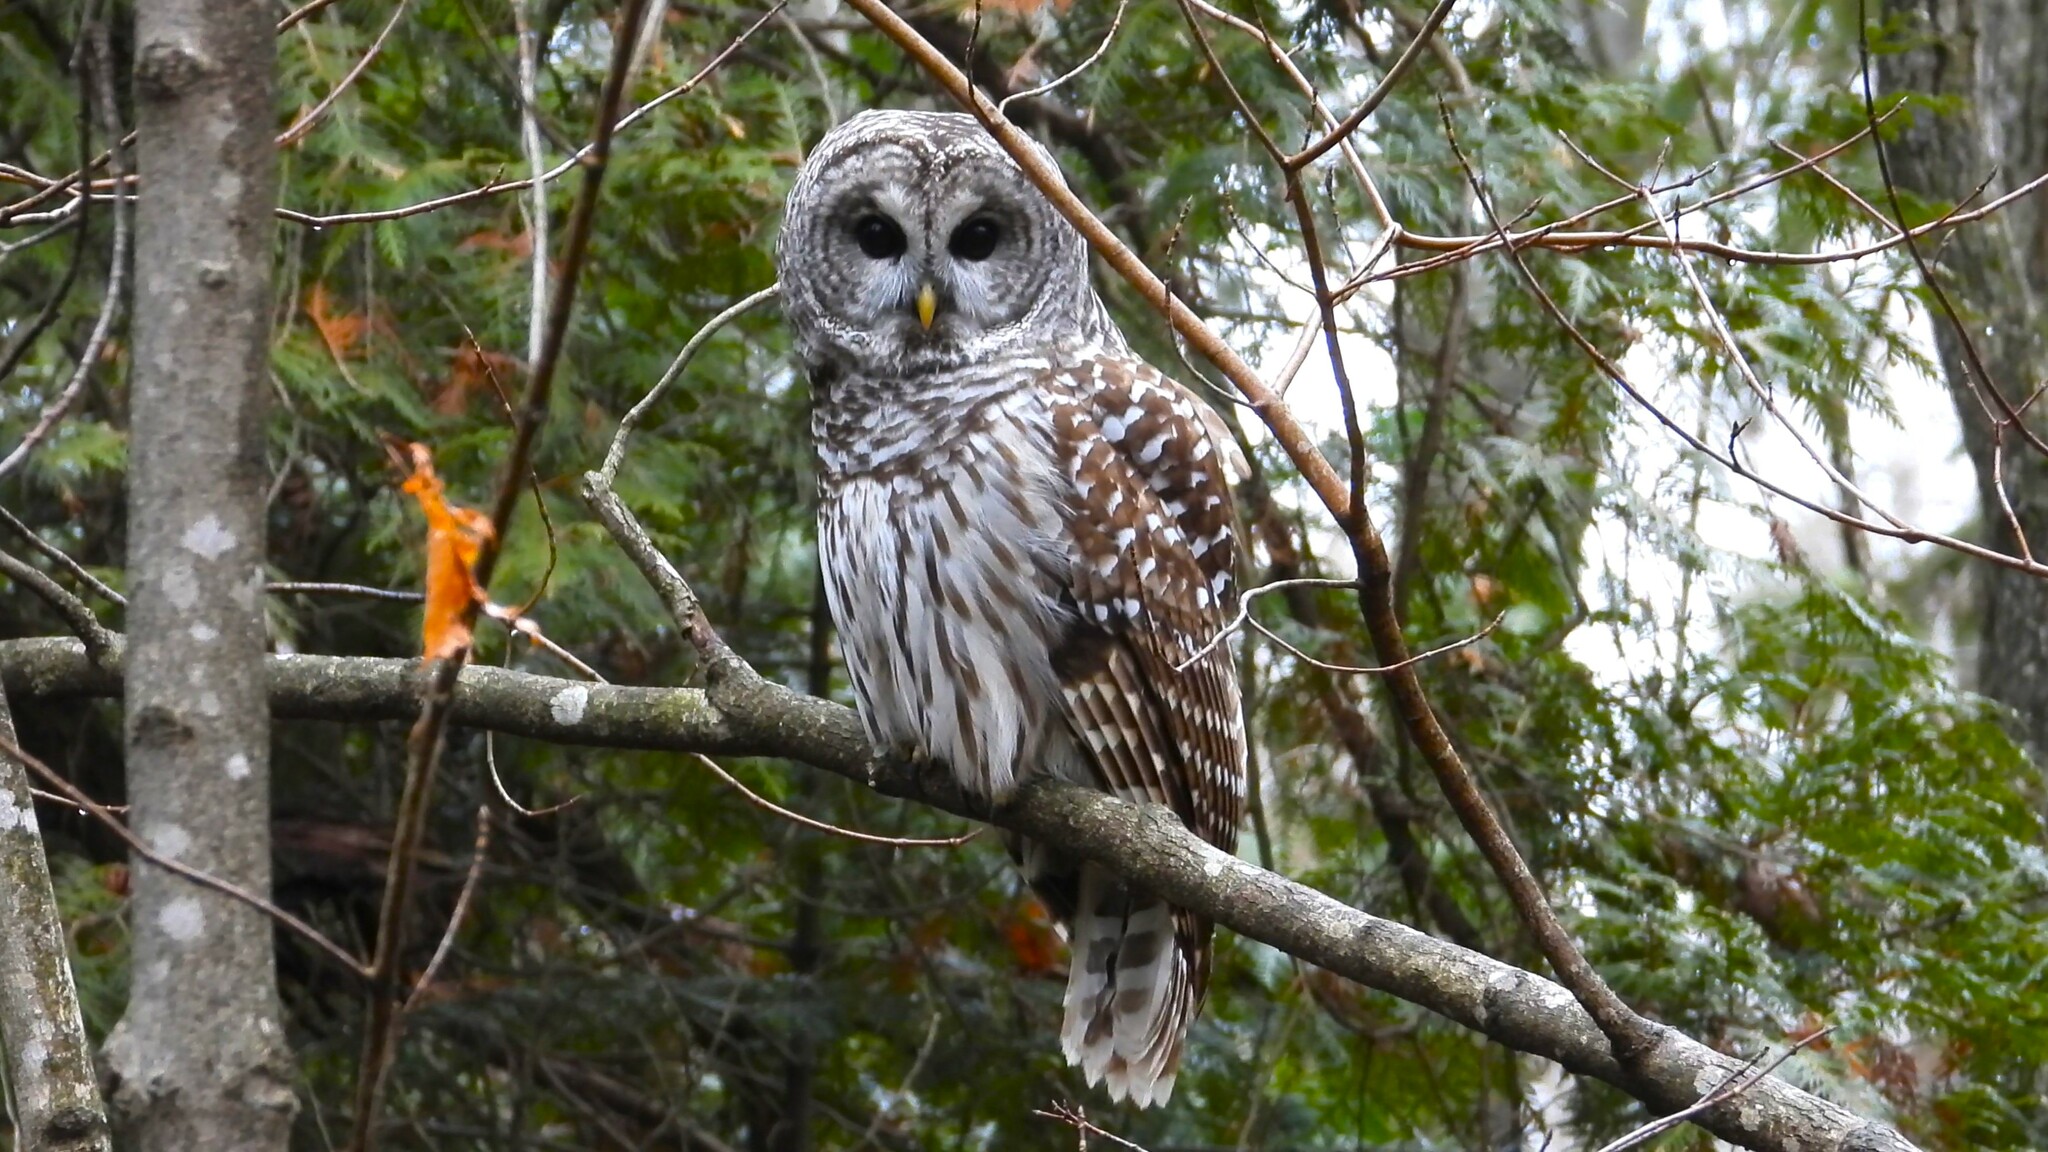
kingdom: Animalia
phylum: Chordata
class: Aves
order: Strigiformes
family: Strigidae
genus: Strix
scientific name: Strix varia
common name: Barred owl
